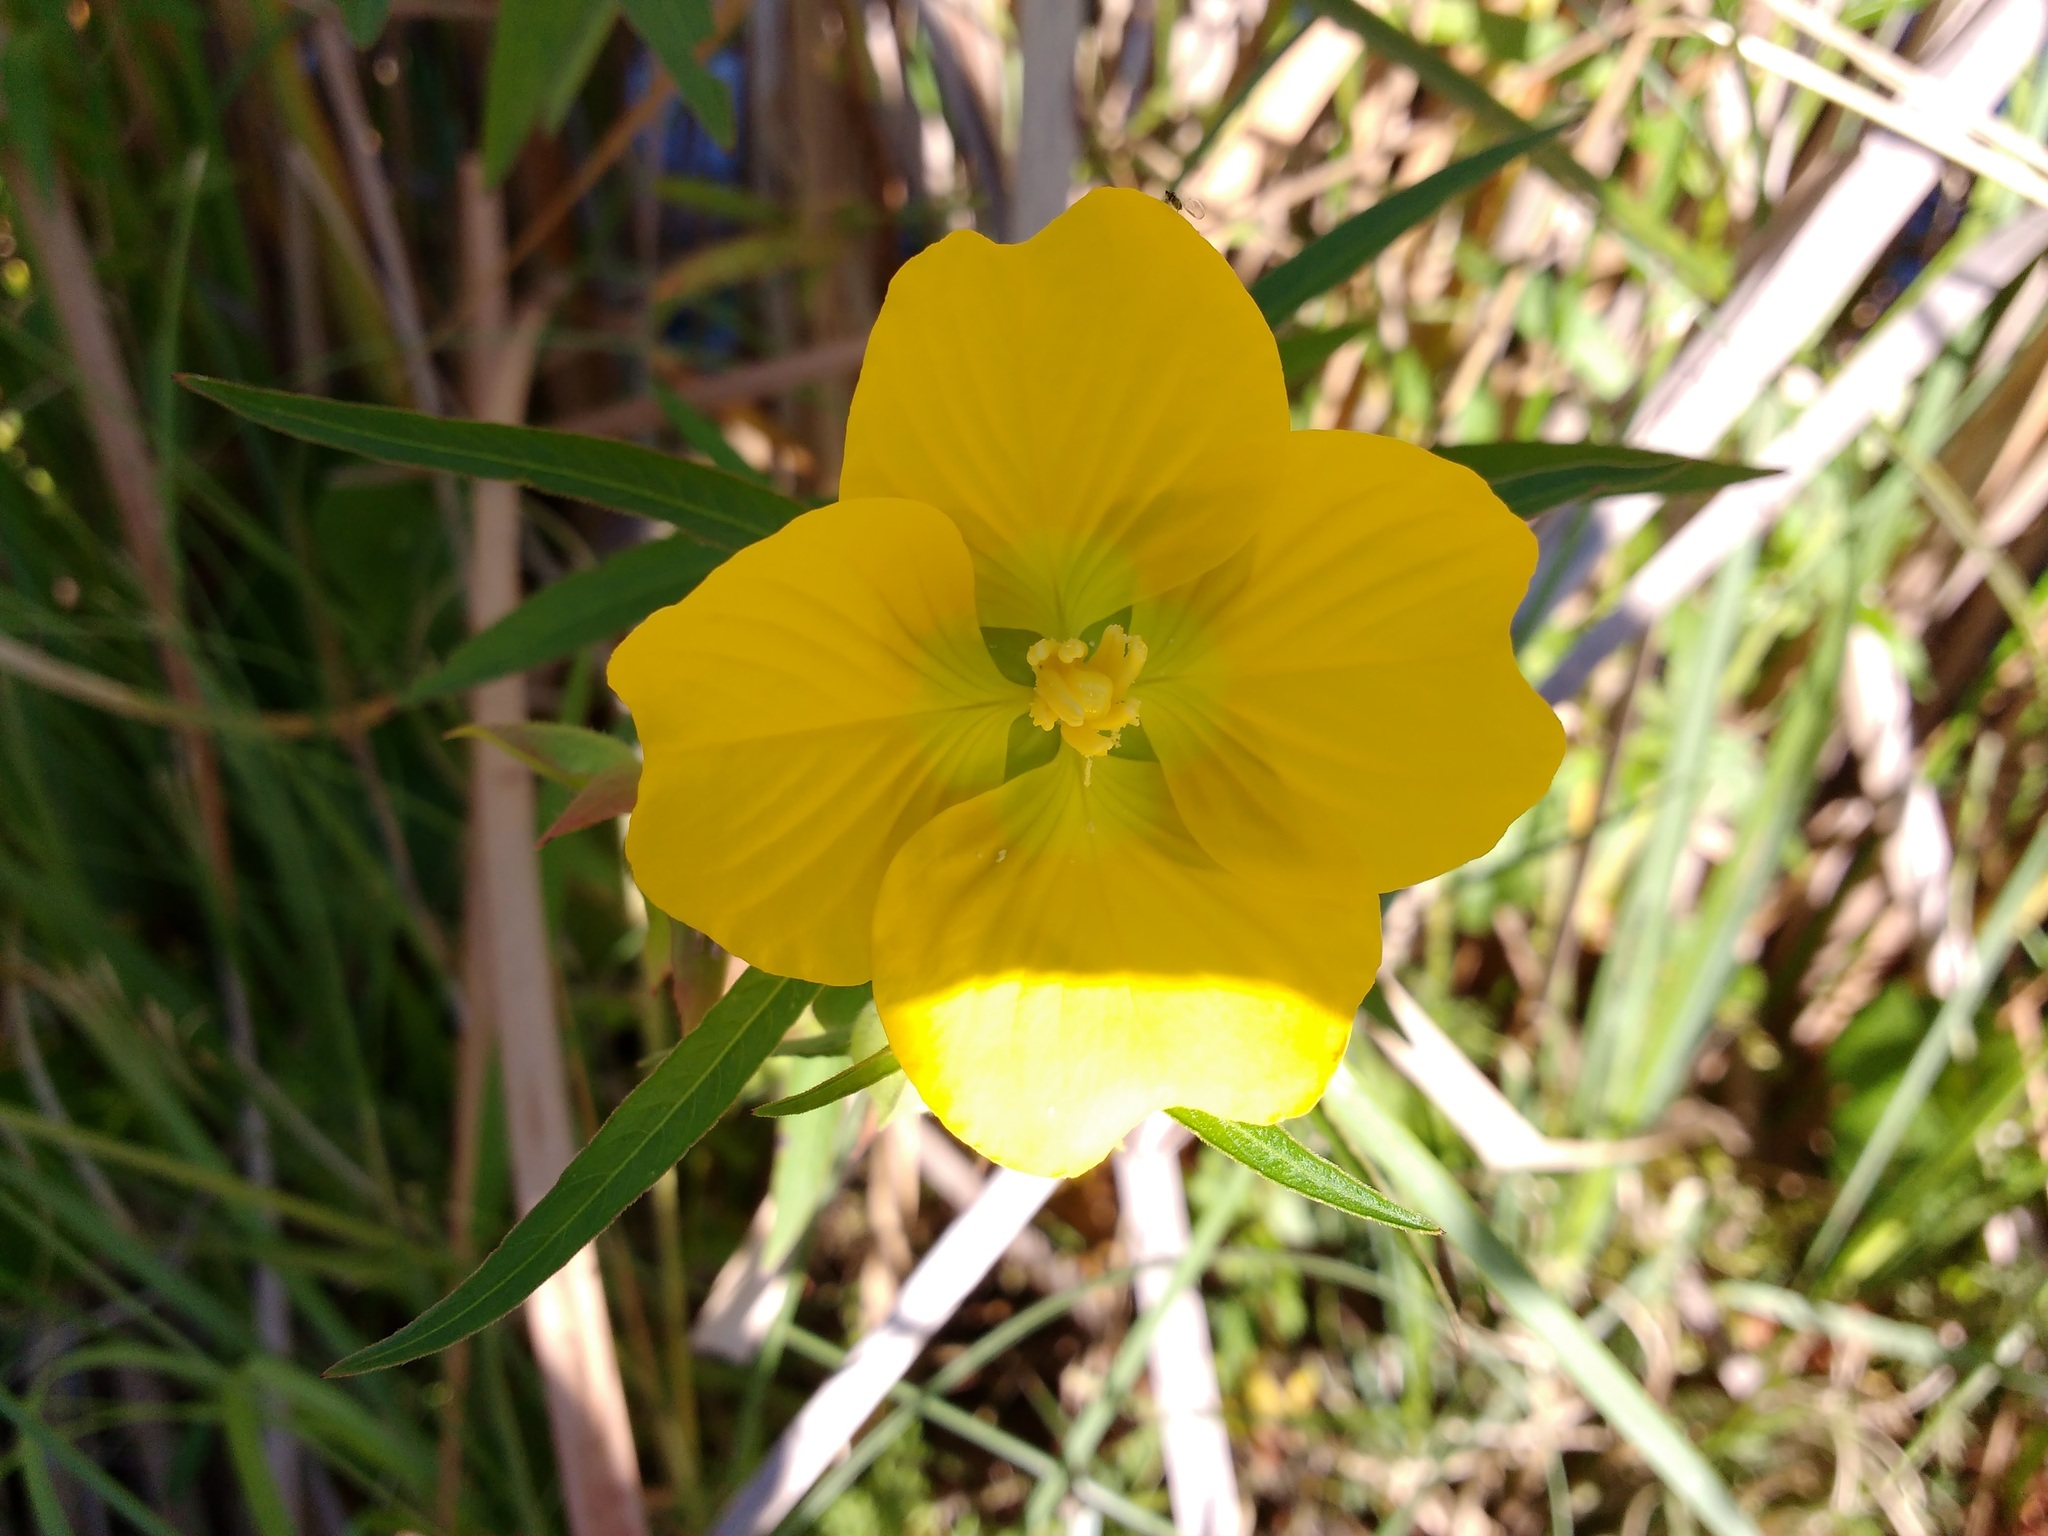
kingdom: Plantae
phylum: Tracheophyta
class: Magnoliopsida
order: Myrtales
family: Onagraceae
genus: Ludwigia
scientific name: Ludwigia bonariensis
